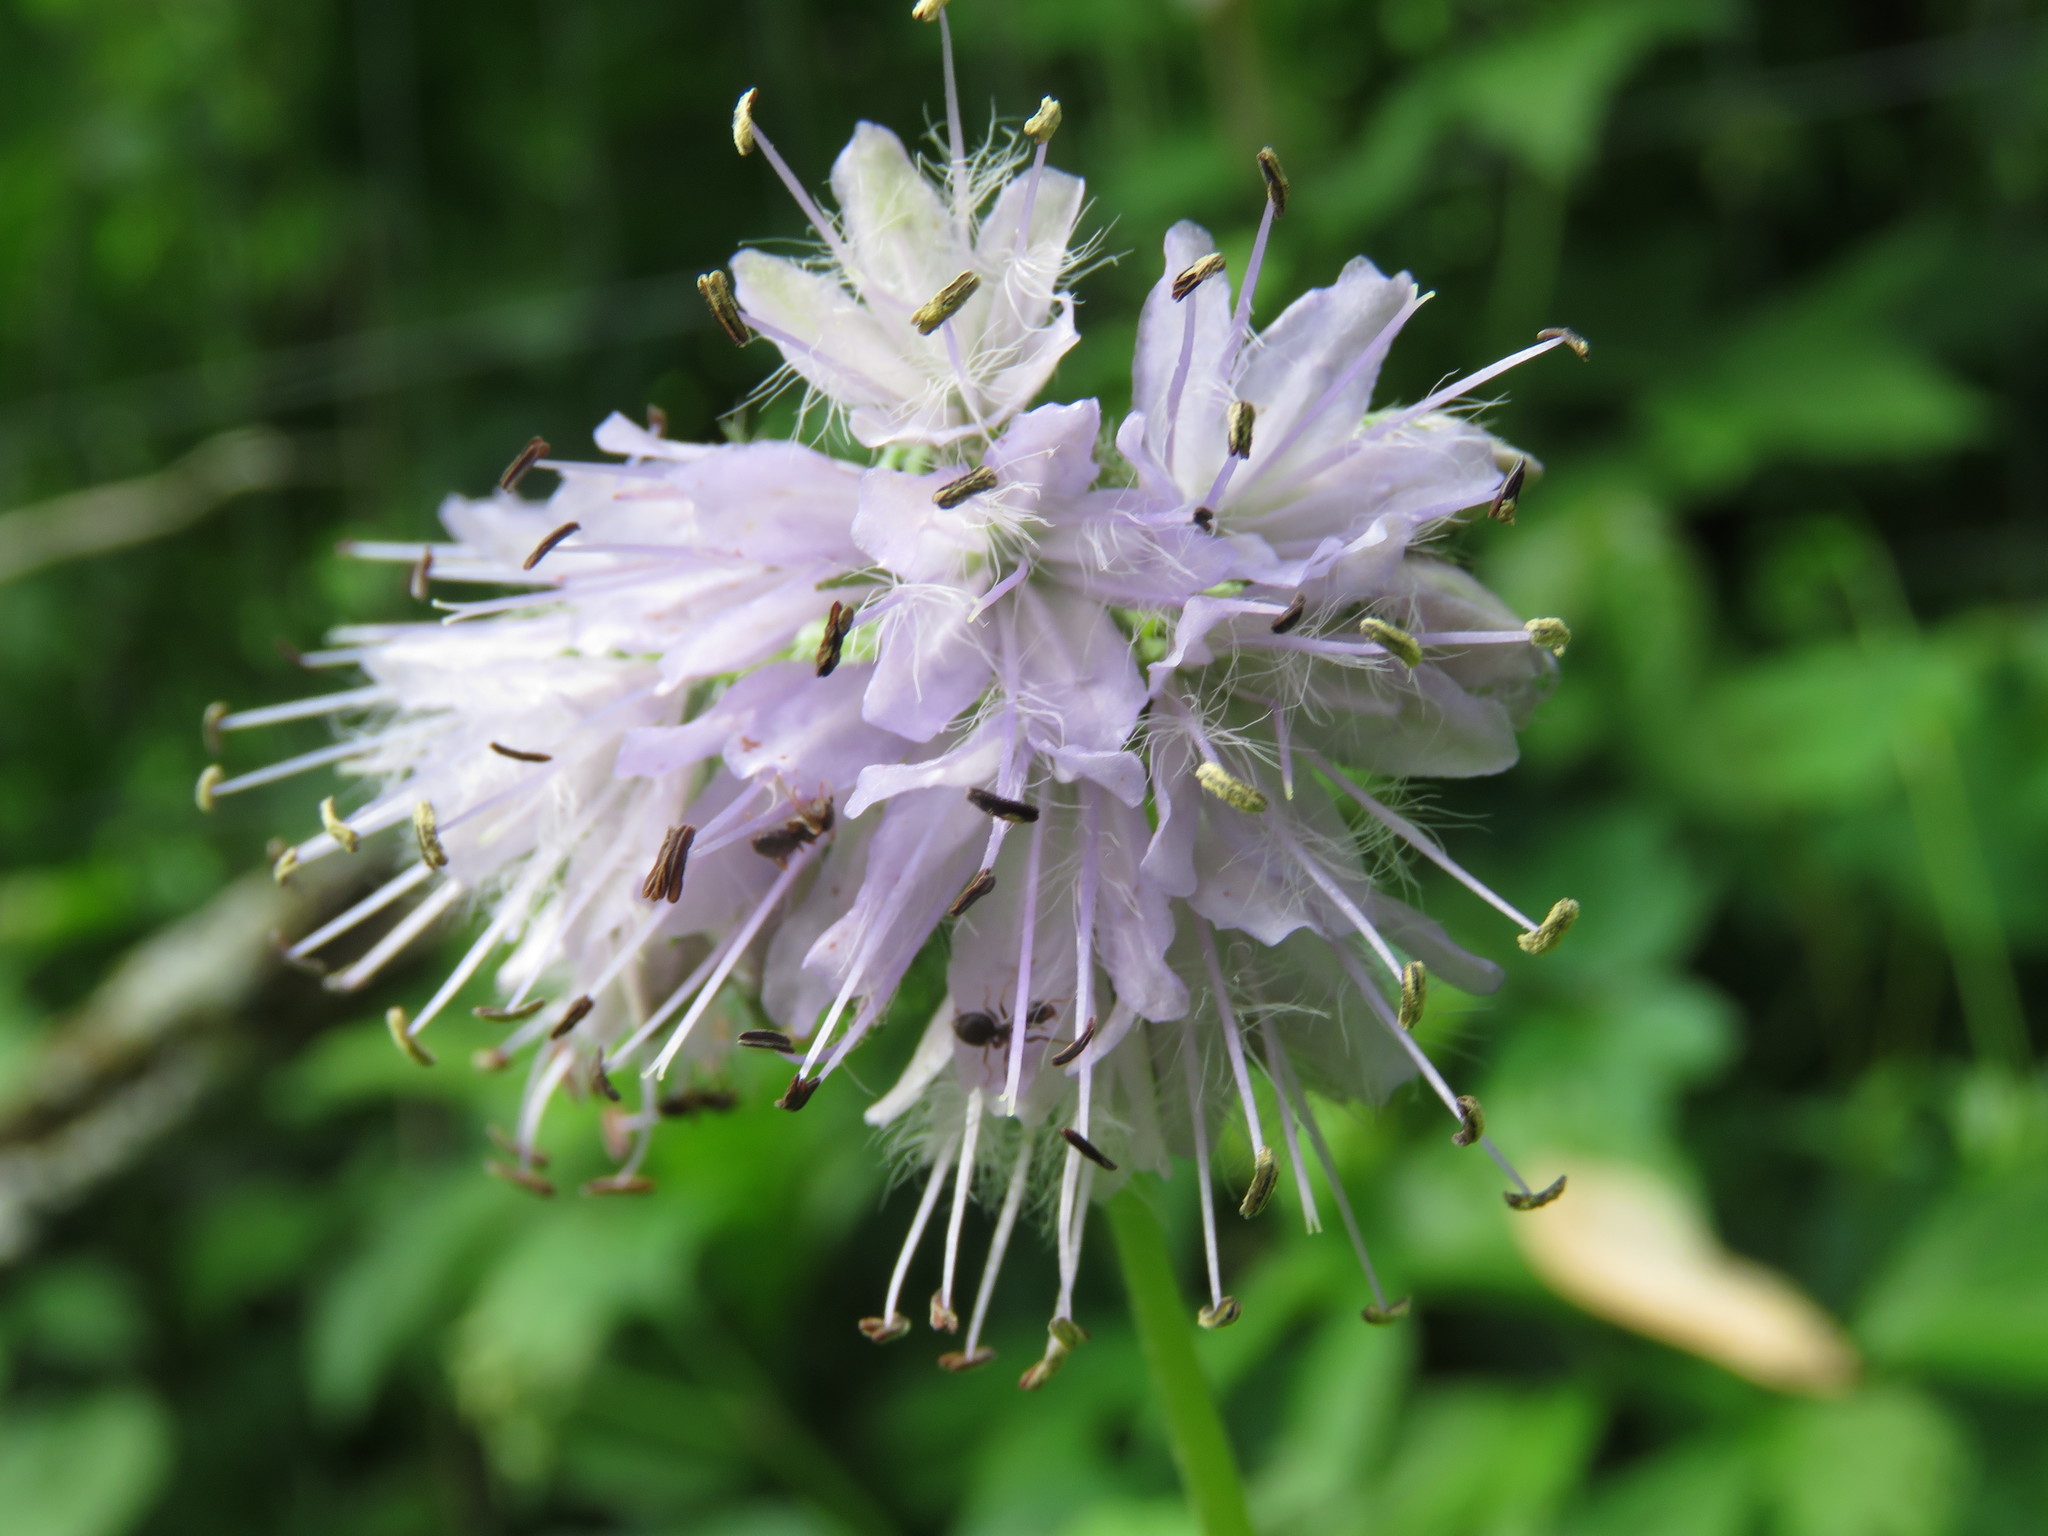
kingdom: Plantae
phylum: Tracheophyta
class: Magnoliopsida
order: Boraginales
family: Hydrophyllaceae
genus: Hydrophyllum
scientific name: Hydrophyllum virginianum
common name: Virginia waterleaf
